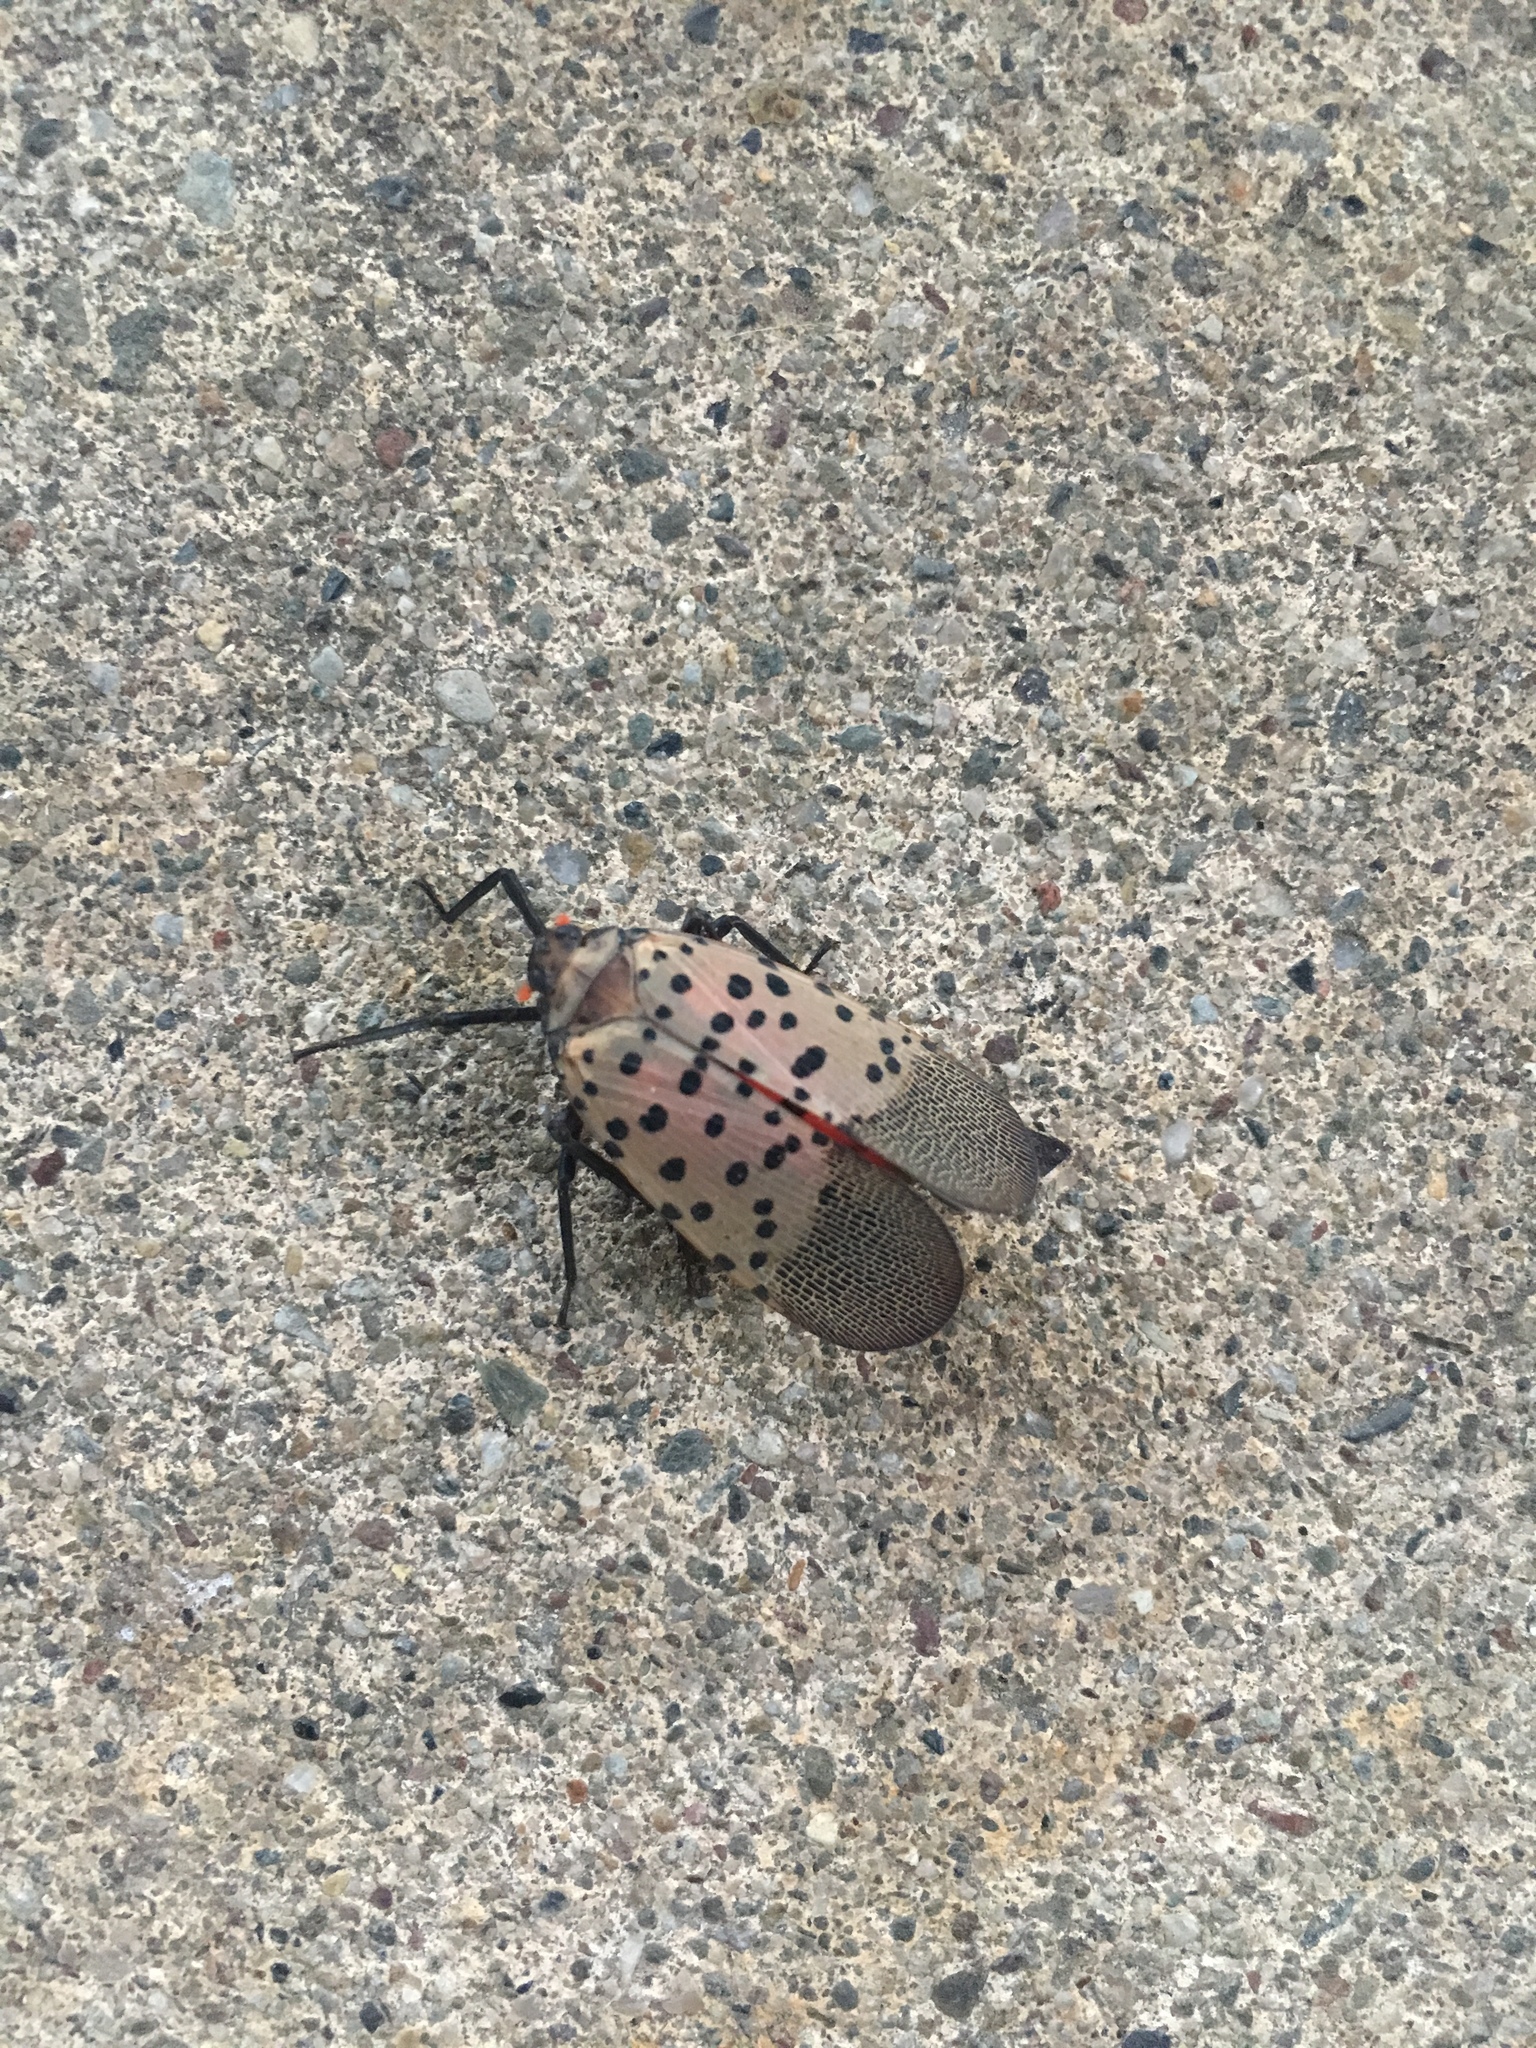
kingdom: Animalia
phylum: Arthropoda
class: Insecta
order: Hemiptera
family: Fulgoridae
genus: Lycorma
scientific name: Lycorma delicatula
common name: Spotted lanternfly
